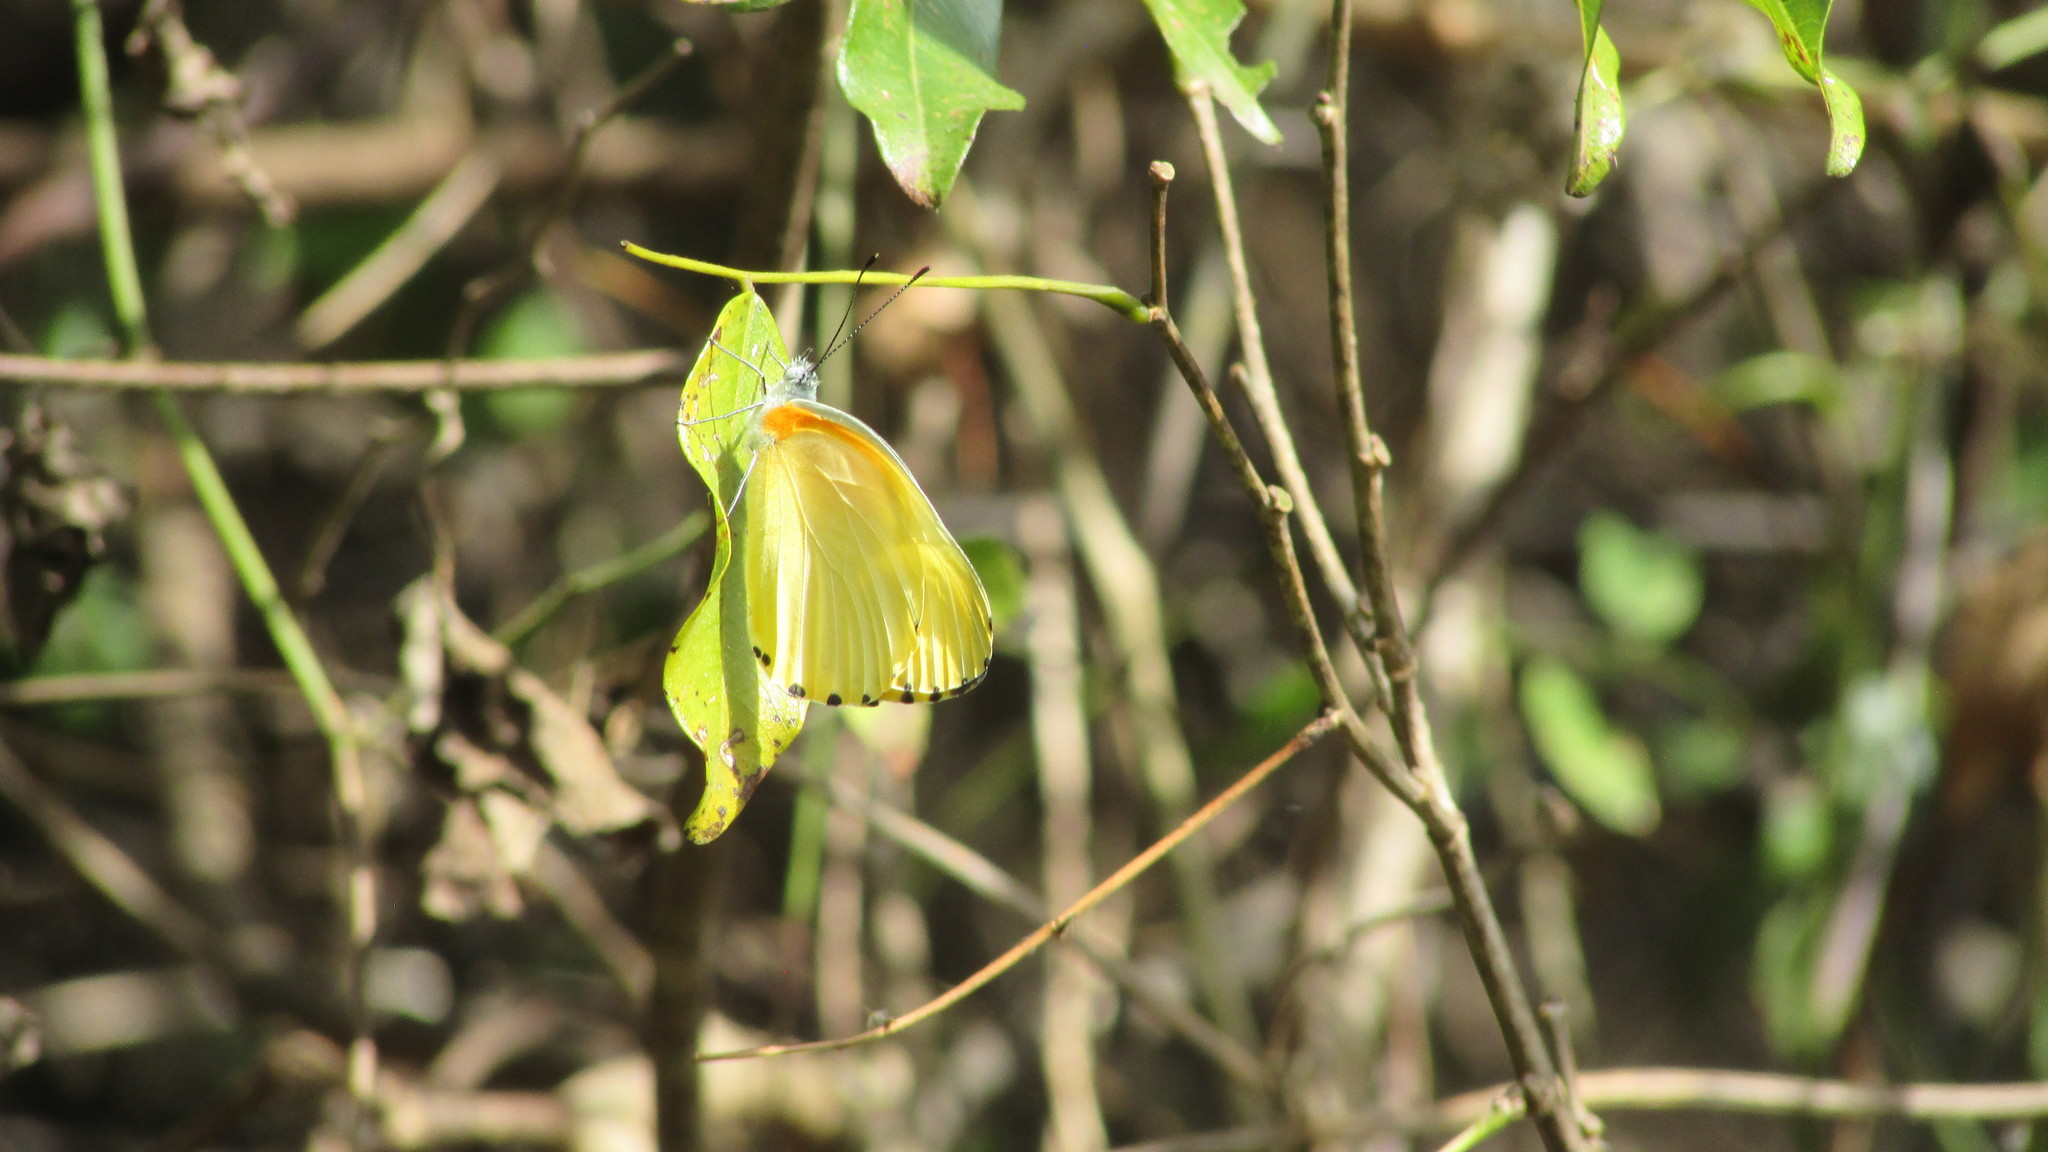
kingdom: Animalia
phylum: Arthropoda
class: Insecta
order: Lepidoptera
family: Pieridae
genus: Mylothris
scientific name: Mylothris agathina
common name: Eastern dotted border
